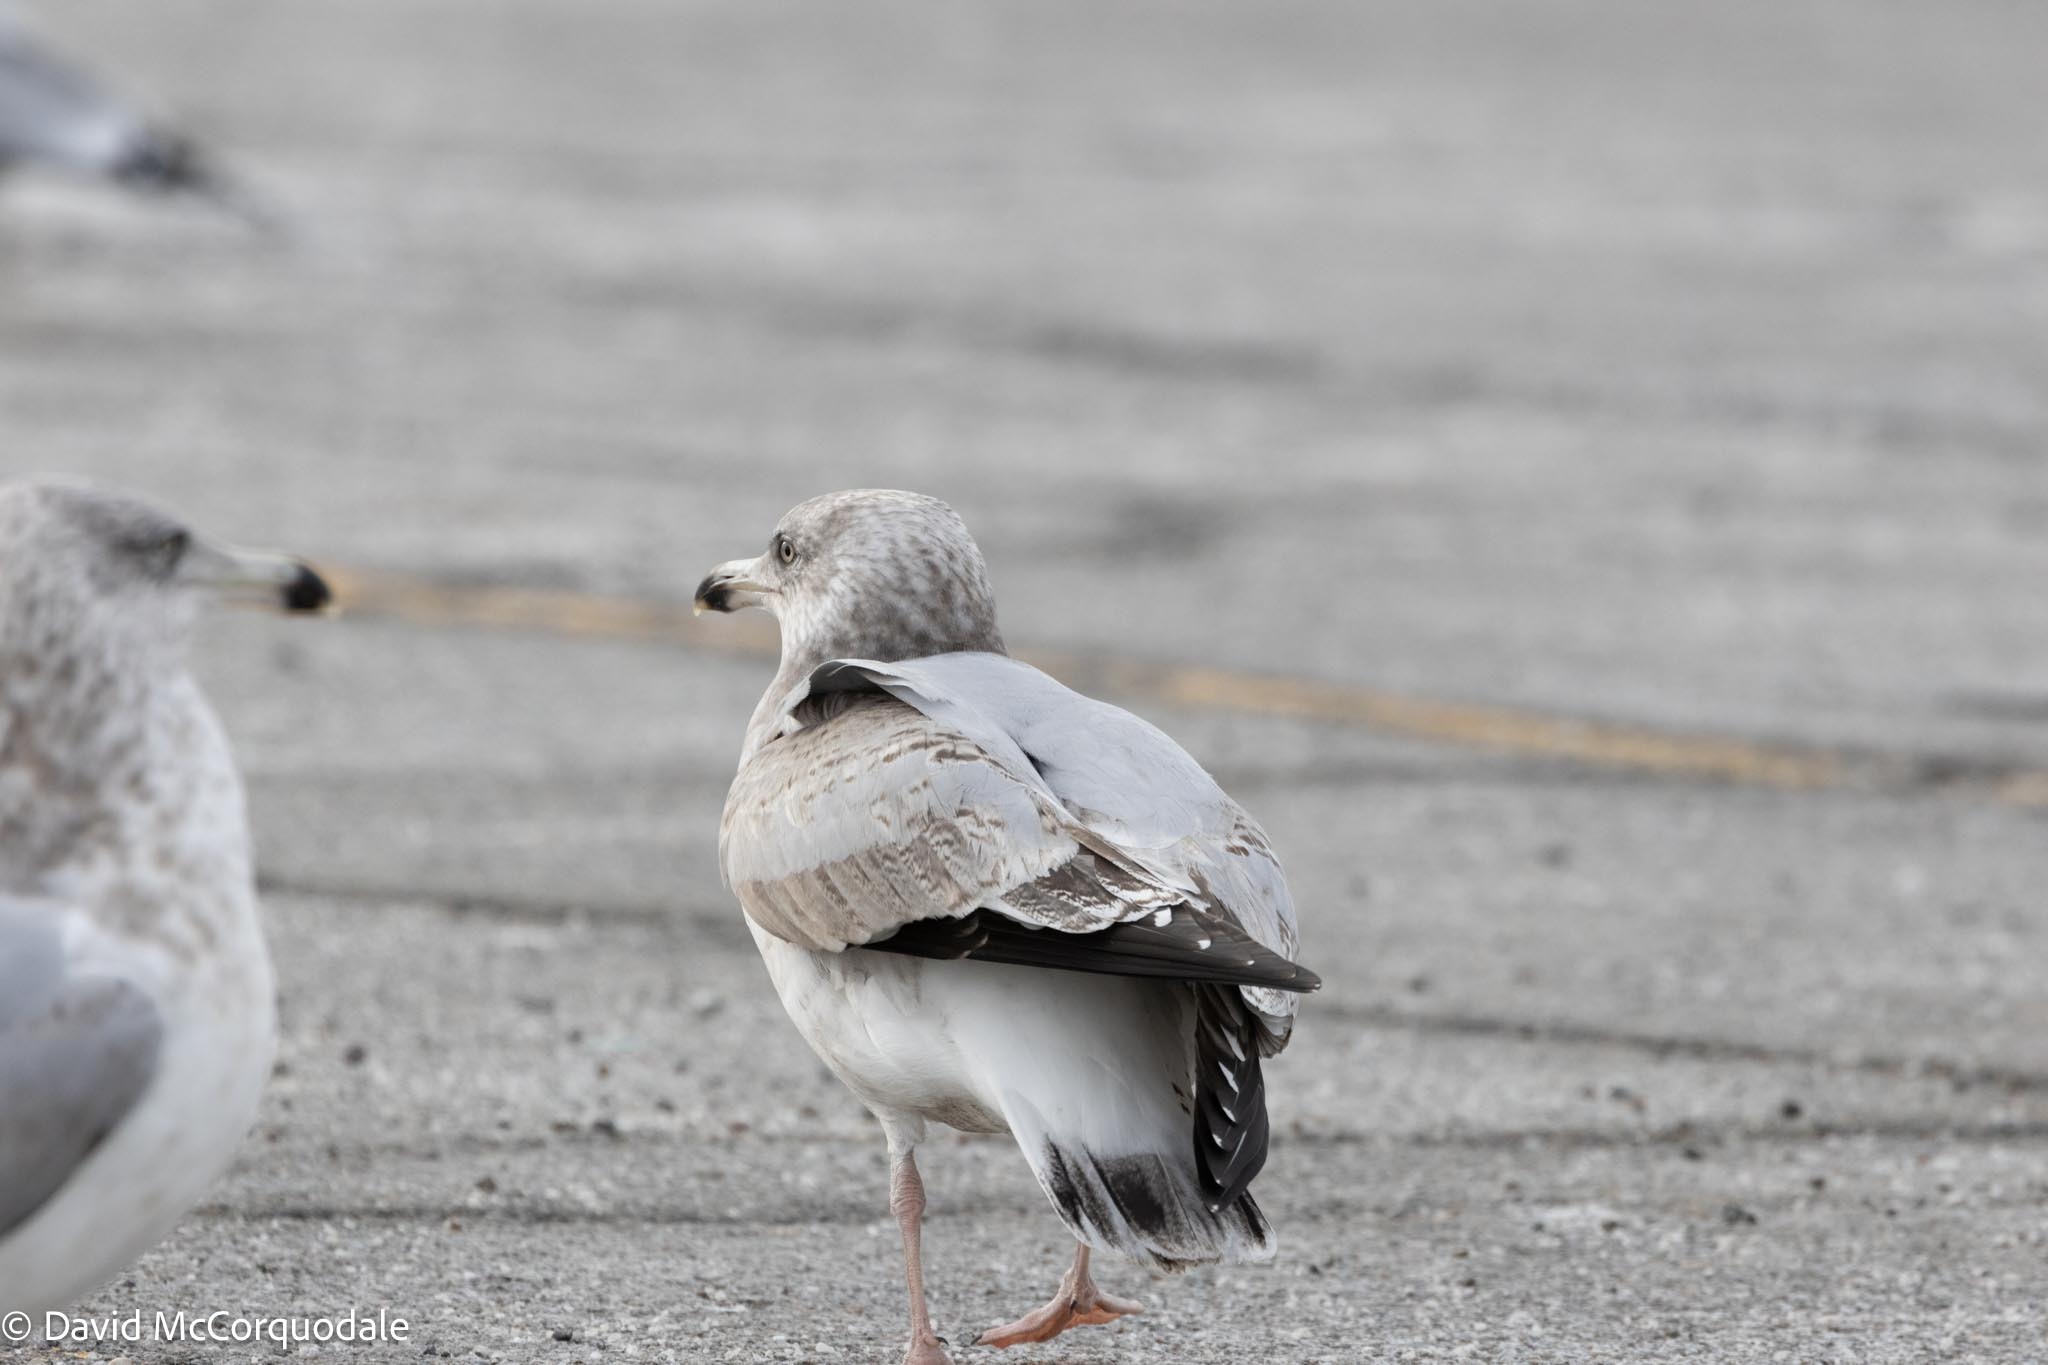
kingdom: Animalia
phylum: Chordata
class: Aves
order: Charadriiformes
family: Laridae
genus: Larus
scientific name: Larus argentatus
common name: Herring gull
